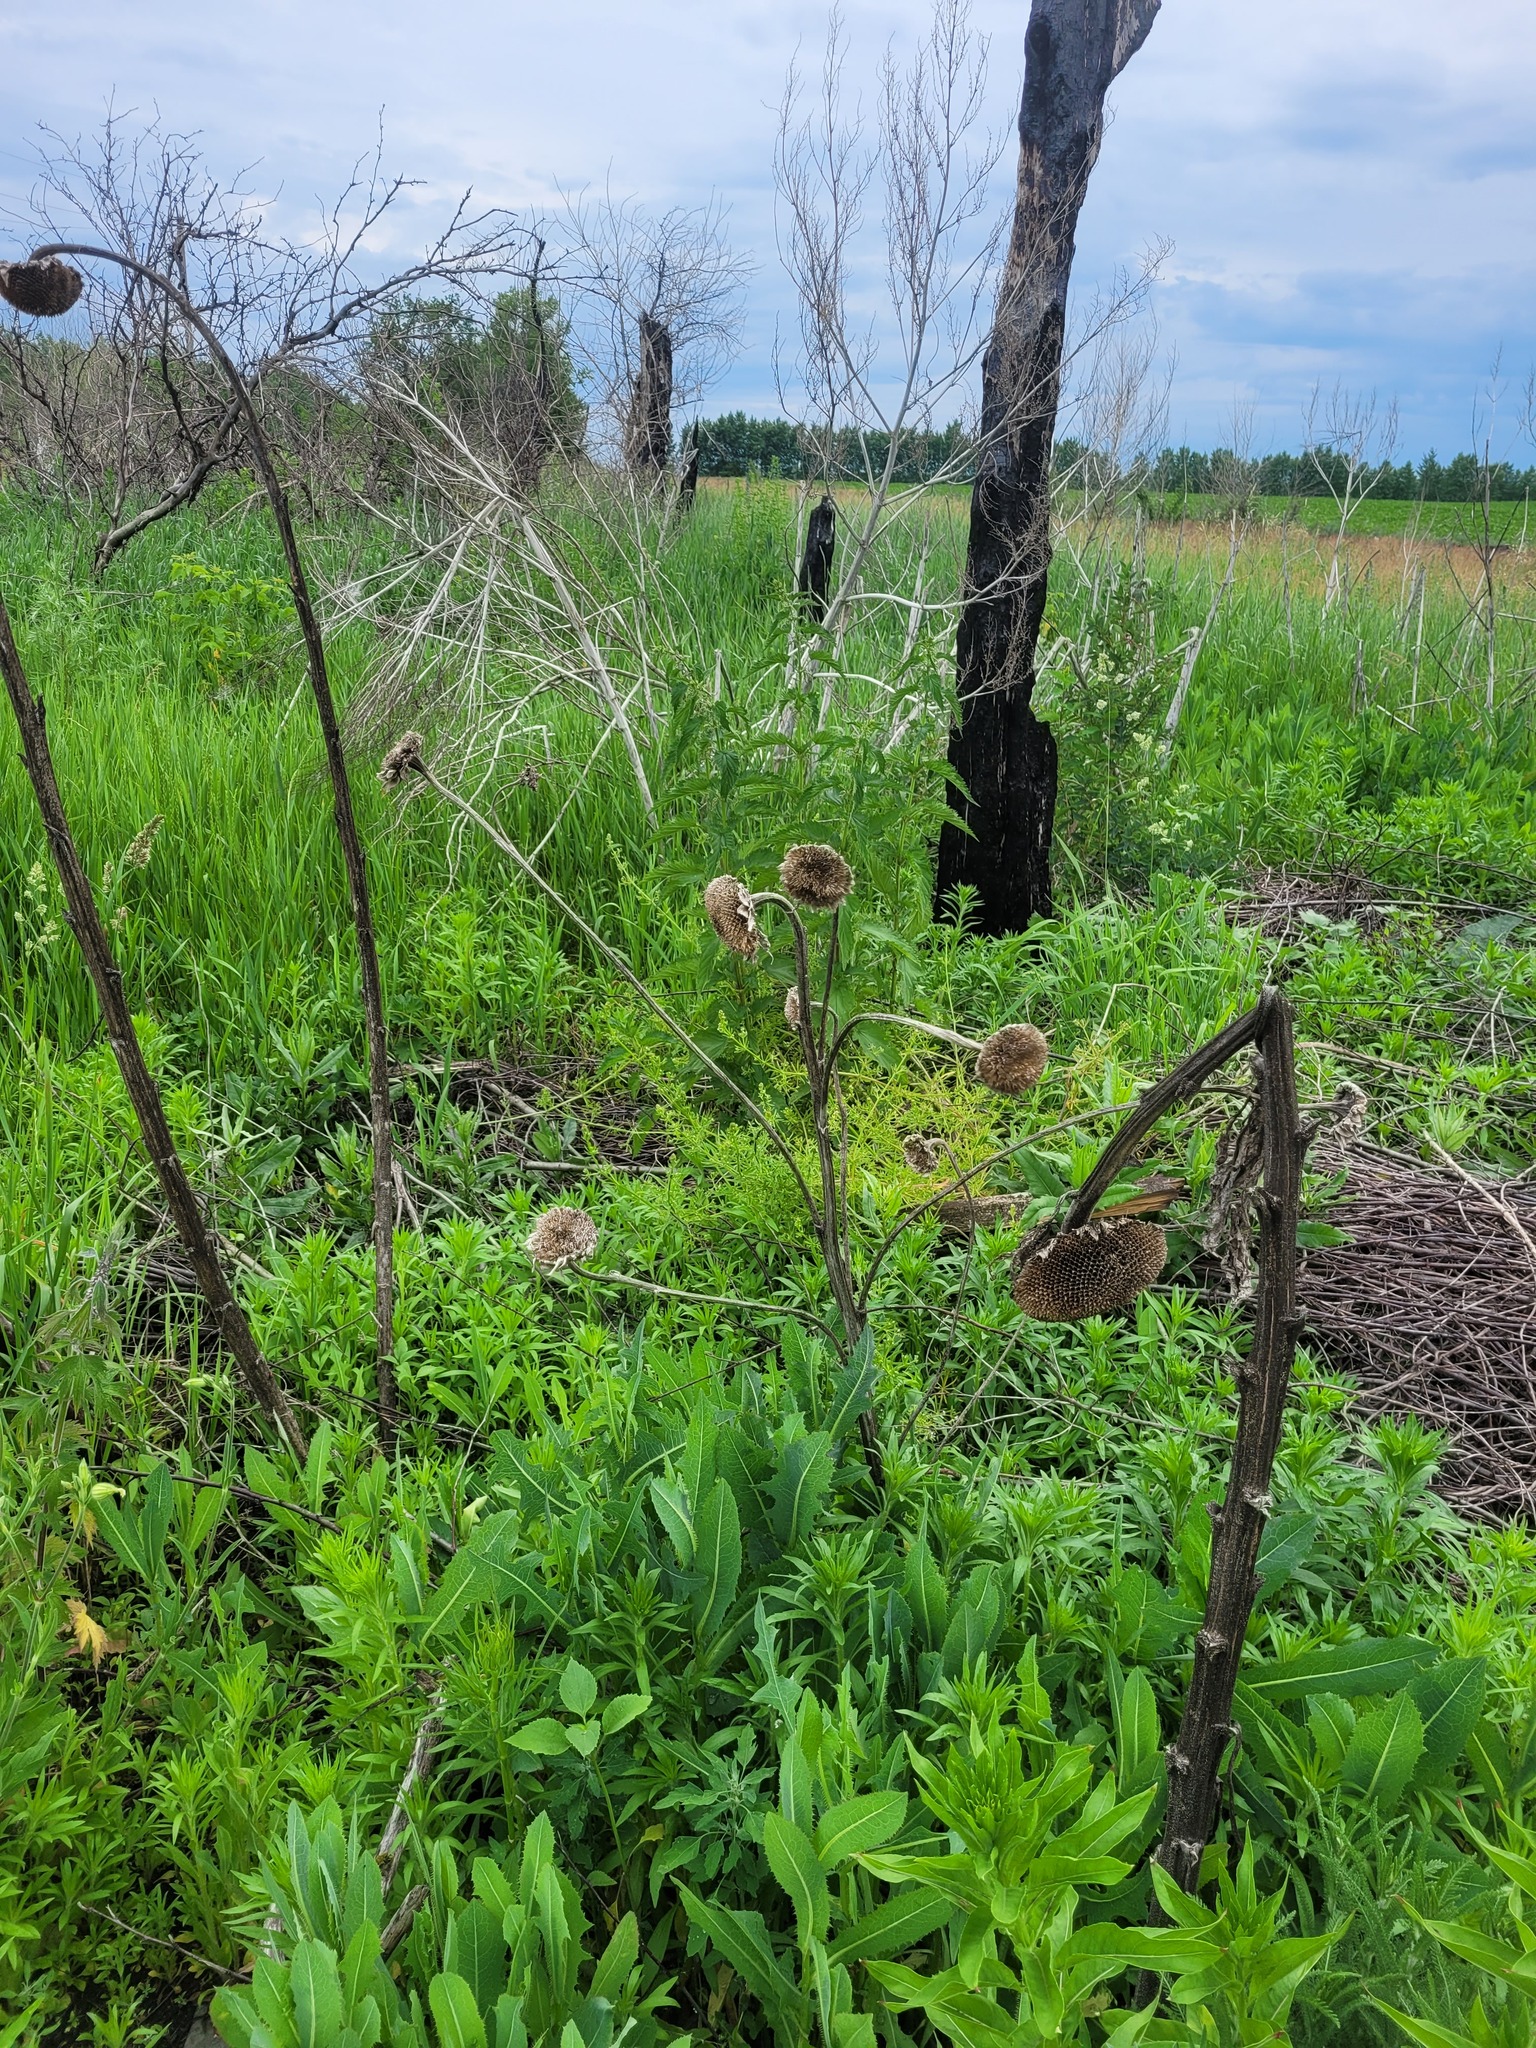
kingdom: Plantae
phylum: Tracheophyta
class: Magnoliopsida
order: Asterales
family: Asteraceae
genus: Helianthus
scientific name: Helianthus annuus
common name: Sunflower
